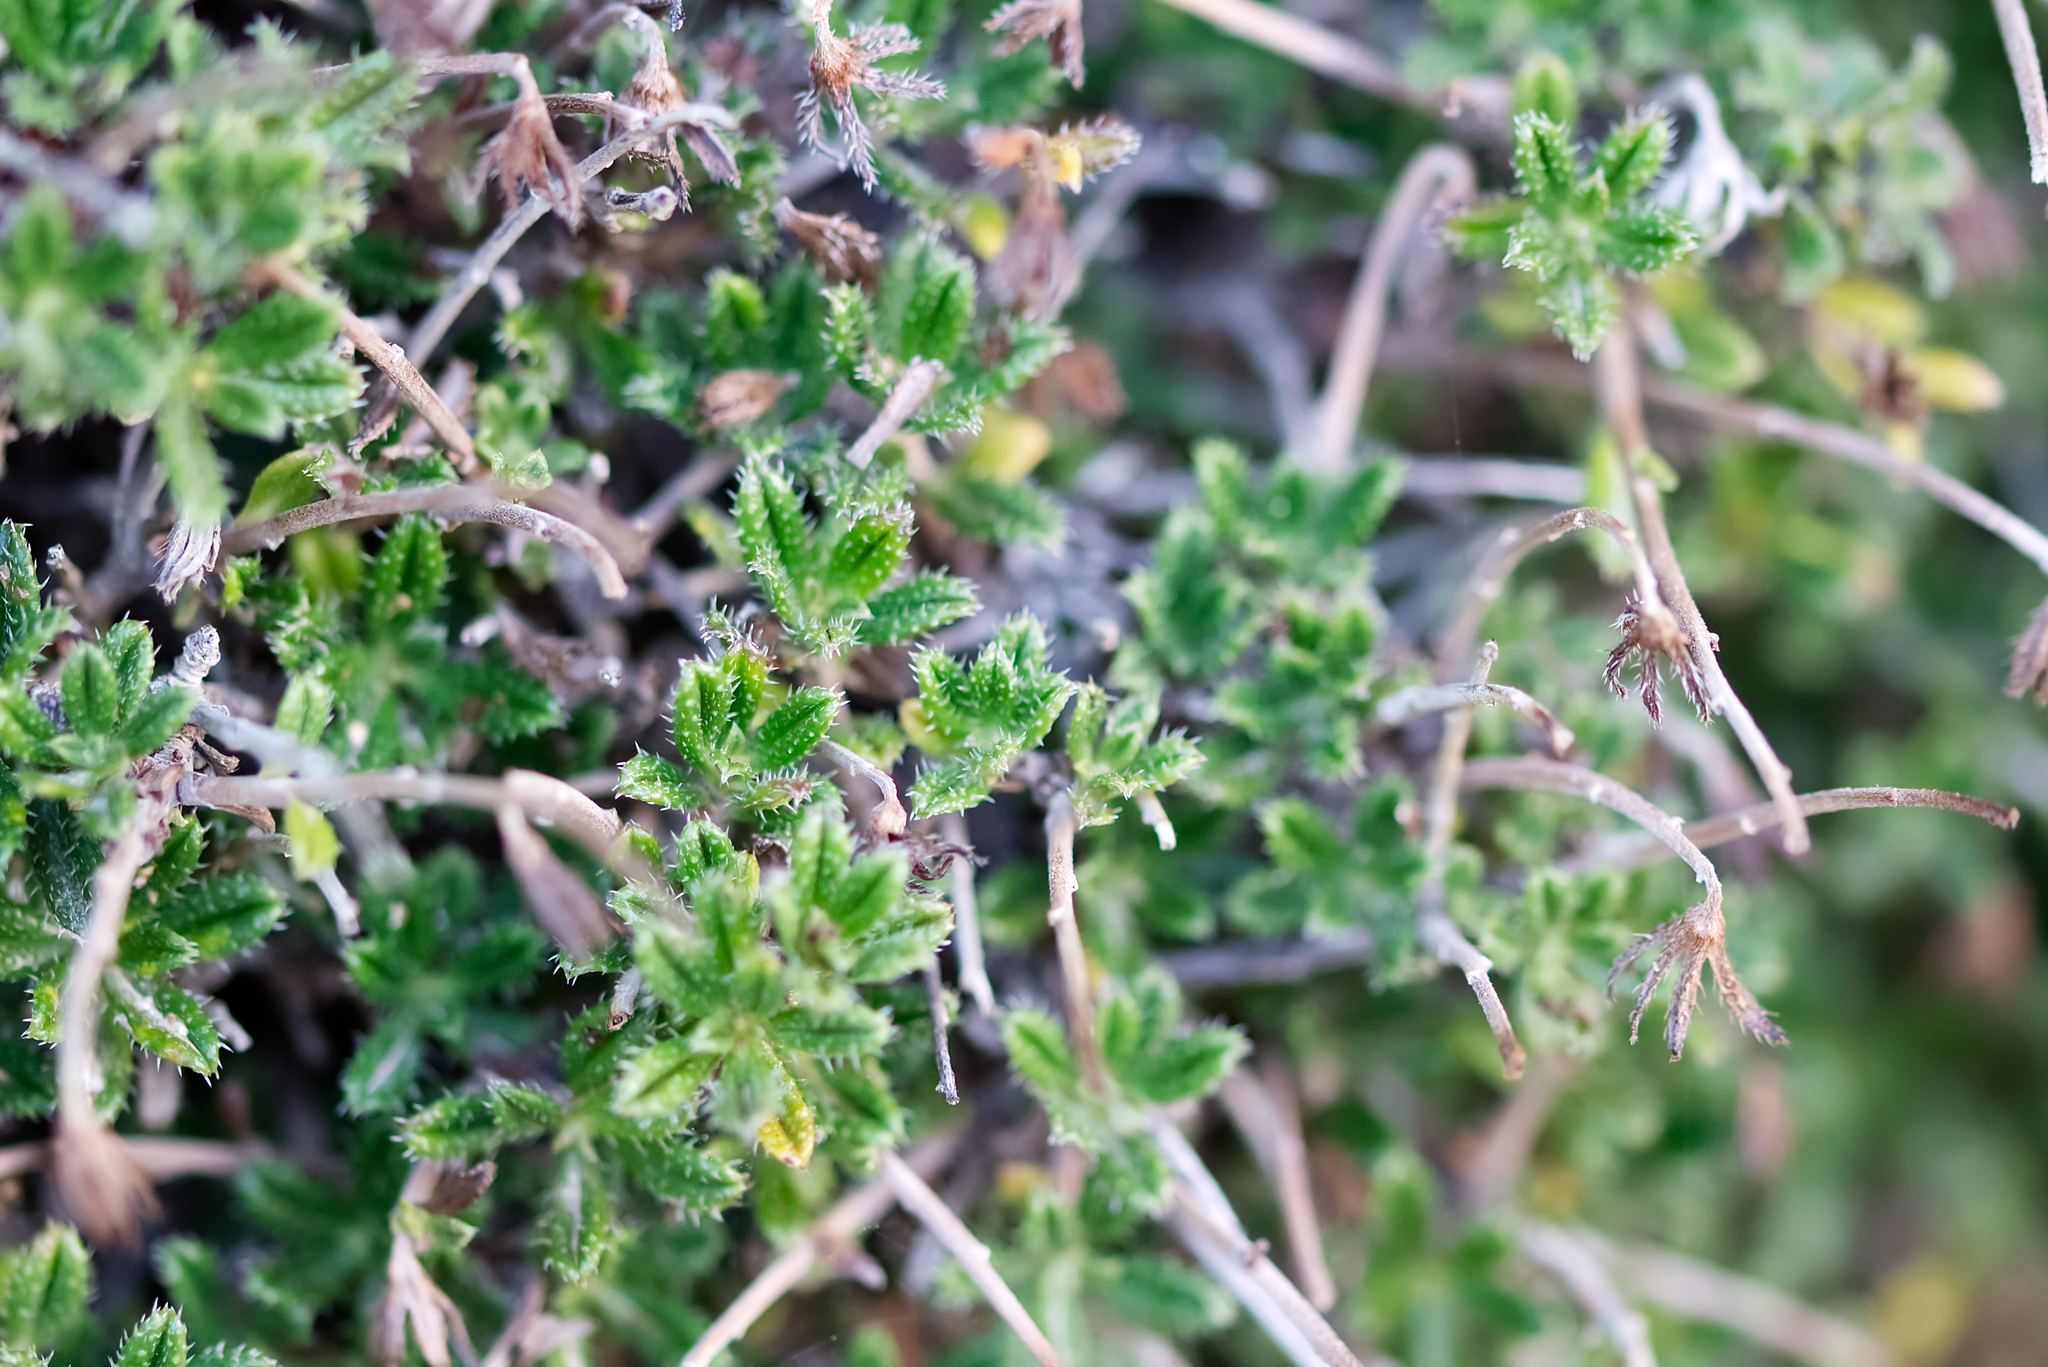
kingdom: Plantae
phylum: Tracheophyta
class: Magnoliopsida
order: Boraginales
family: Boraginaceae
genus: Lithodora
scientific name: Lithodora hispidula
